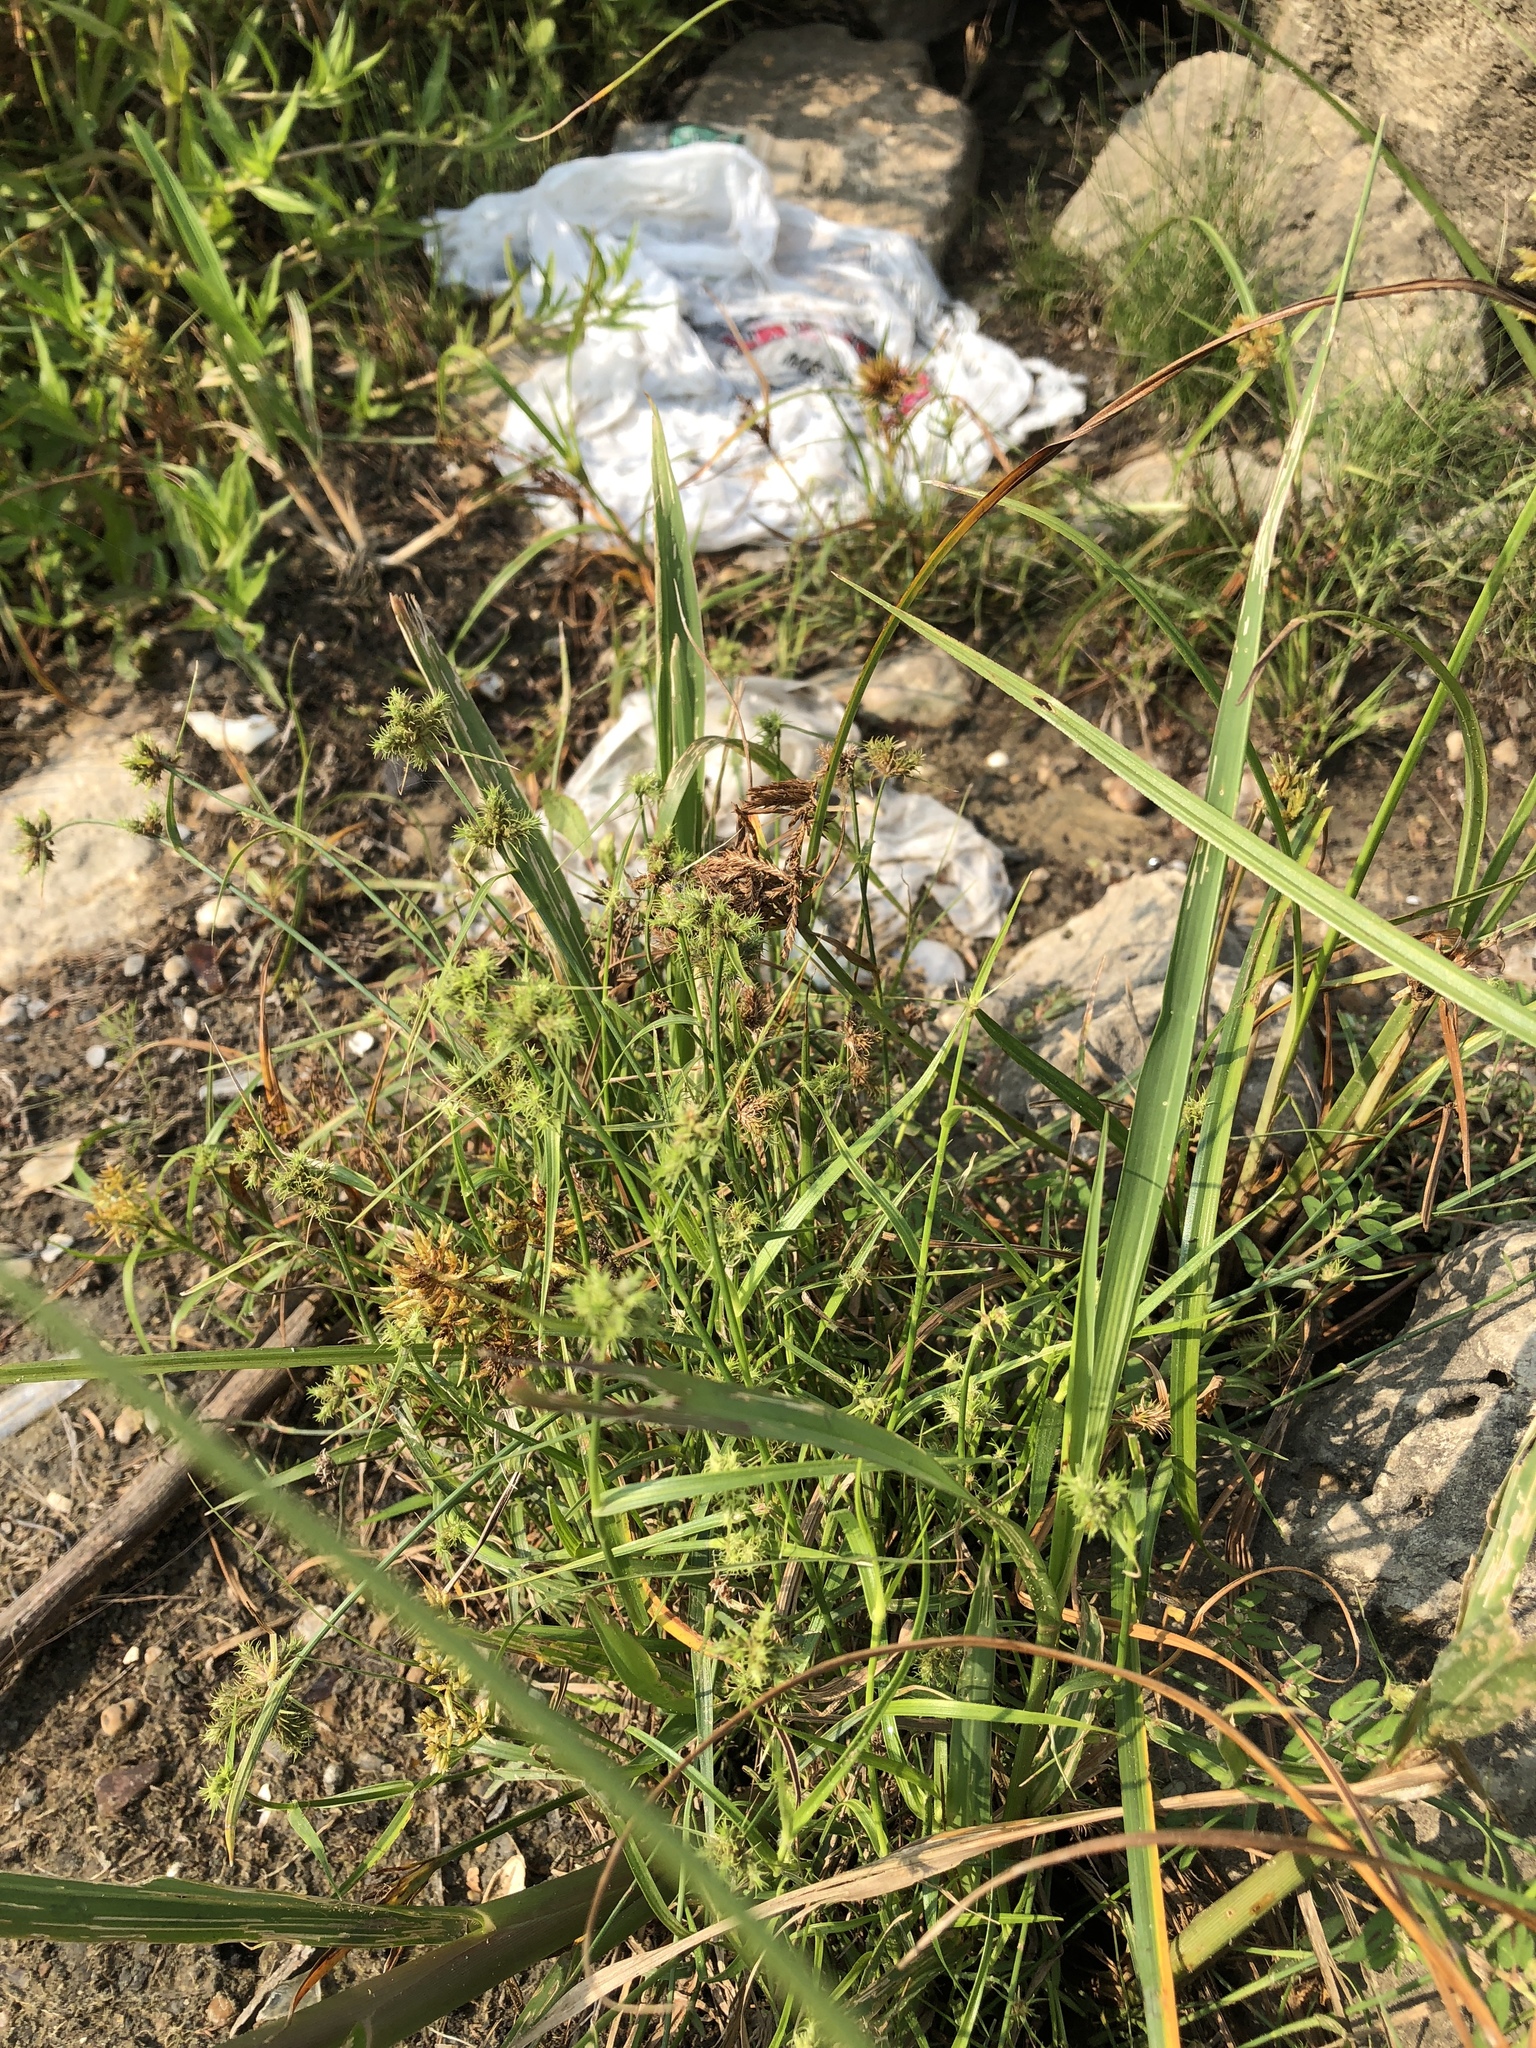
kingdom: Plantae
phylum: Tracheophyta
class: Liliopsida
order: Poales
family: Cyperaceae
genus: Fuirena
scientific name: Fuirena simplex
